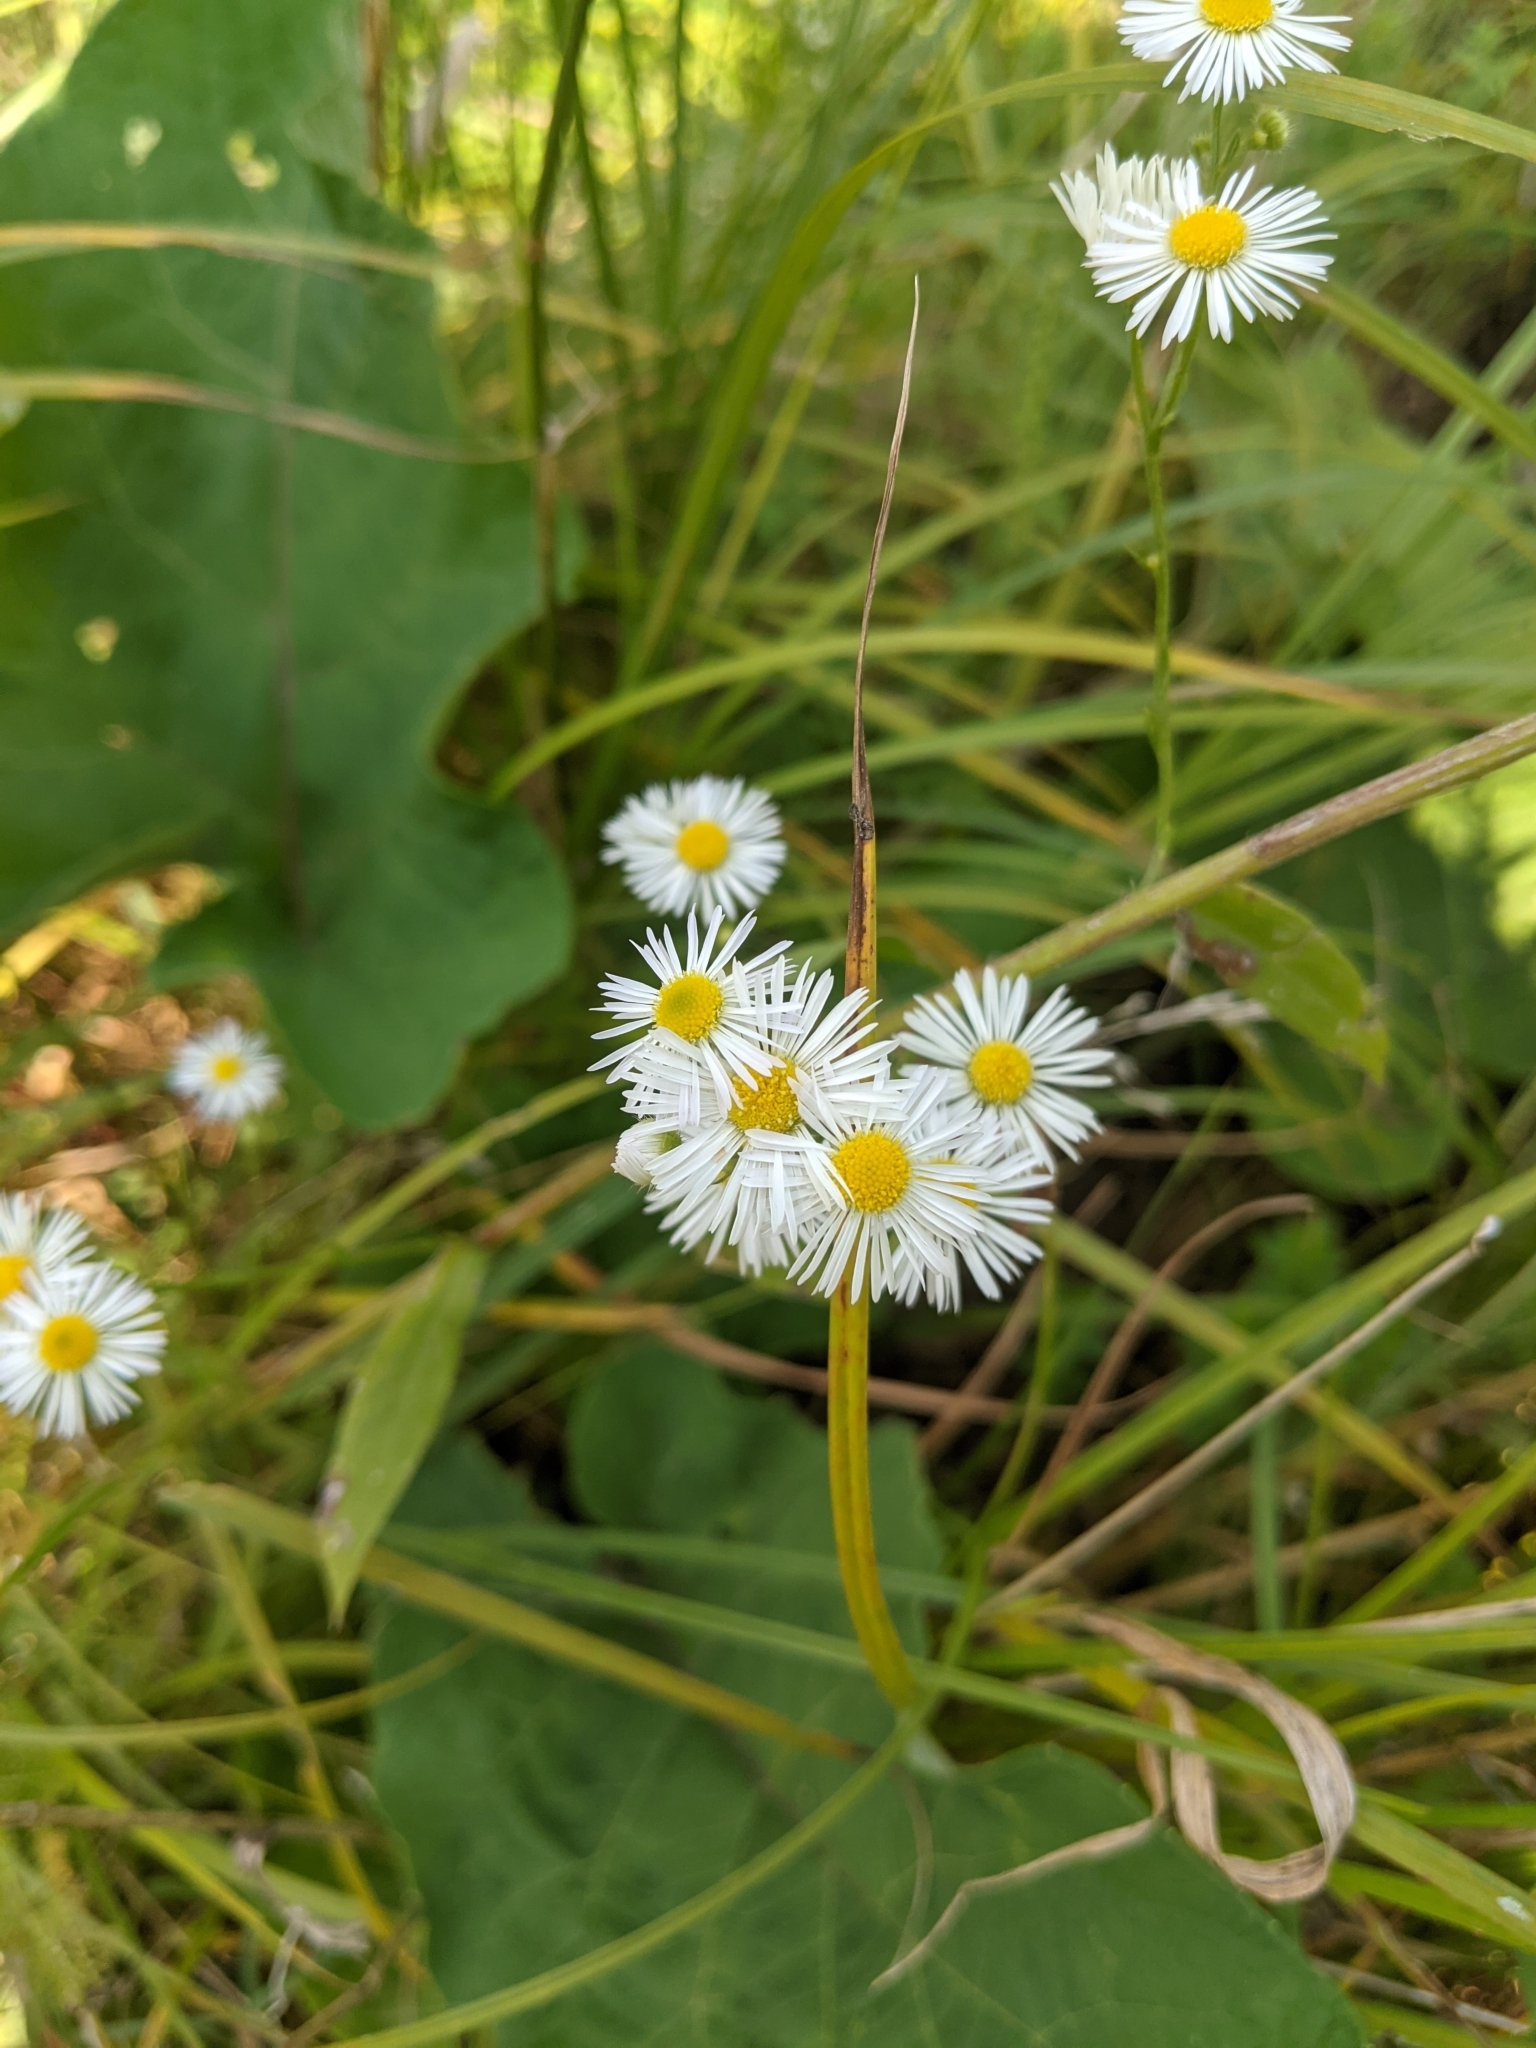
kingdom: Plantae
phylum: Tracheophyta
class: Magnoliopsida
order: Asterales
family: Asteraceae
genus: Erigeron
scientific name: Erigeron annuus
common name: Tall fleabane
